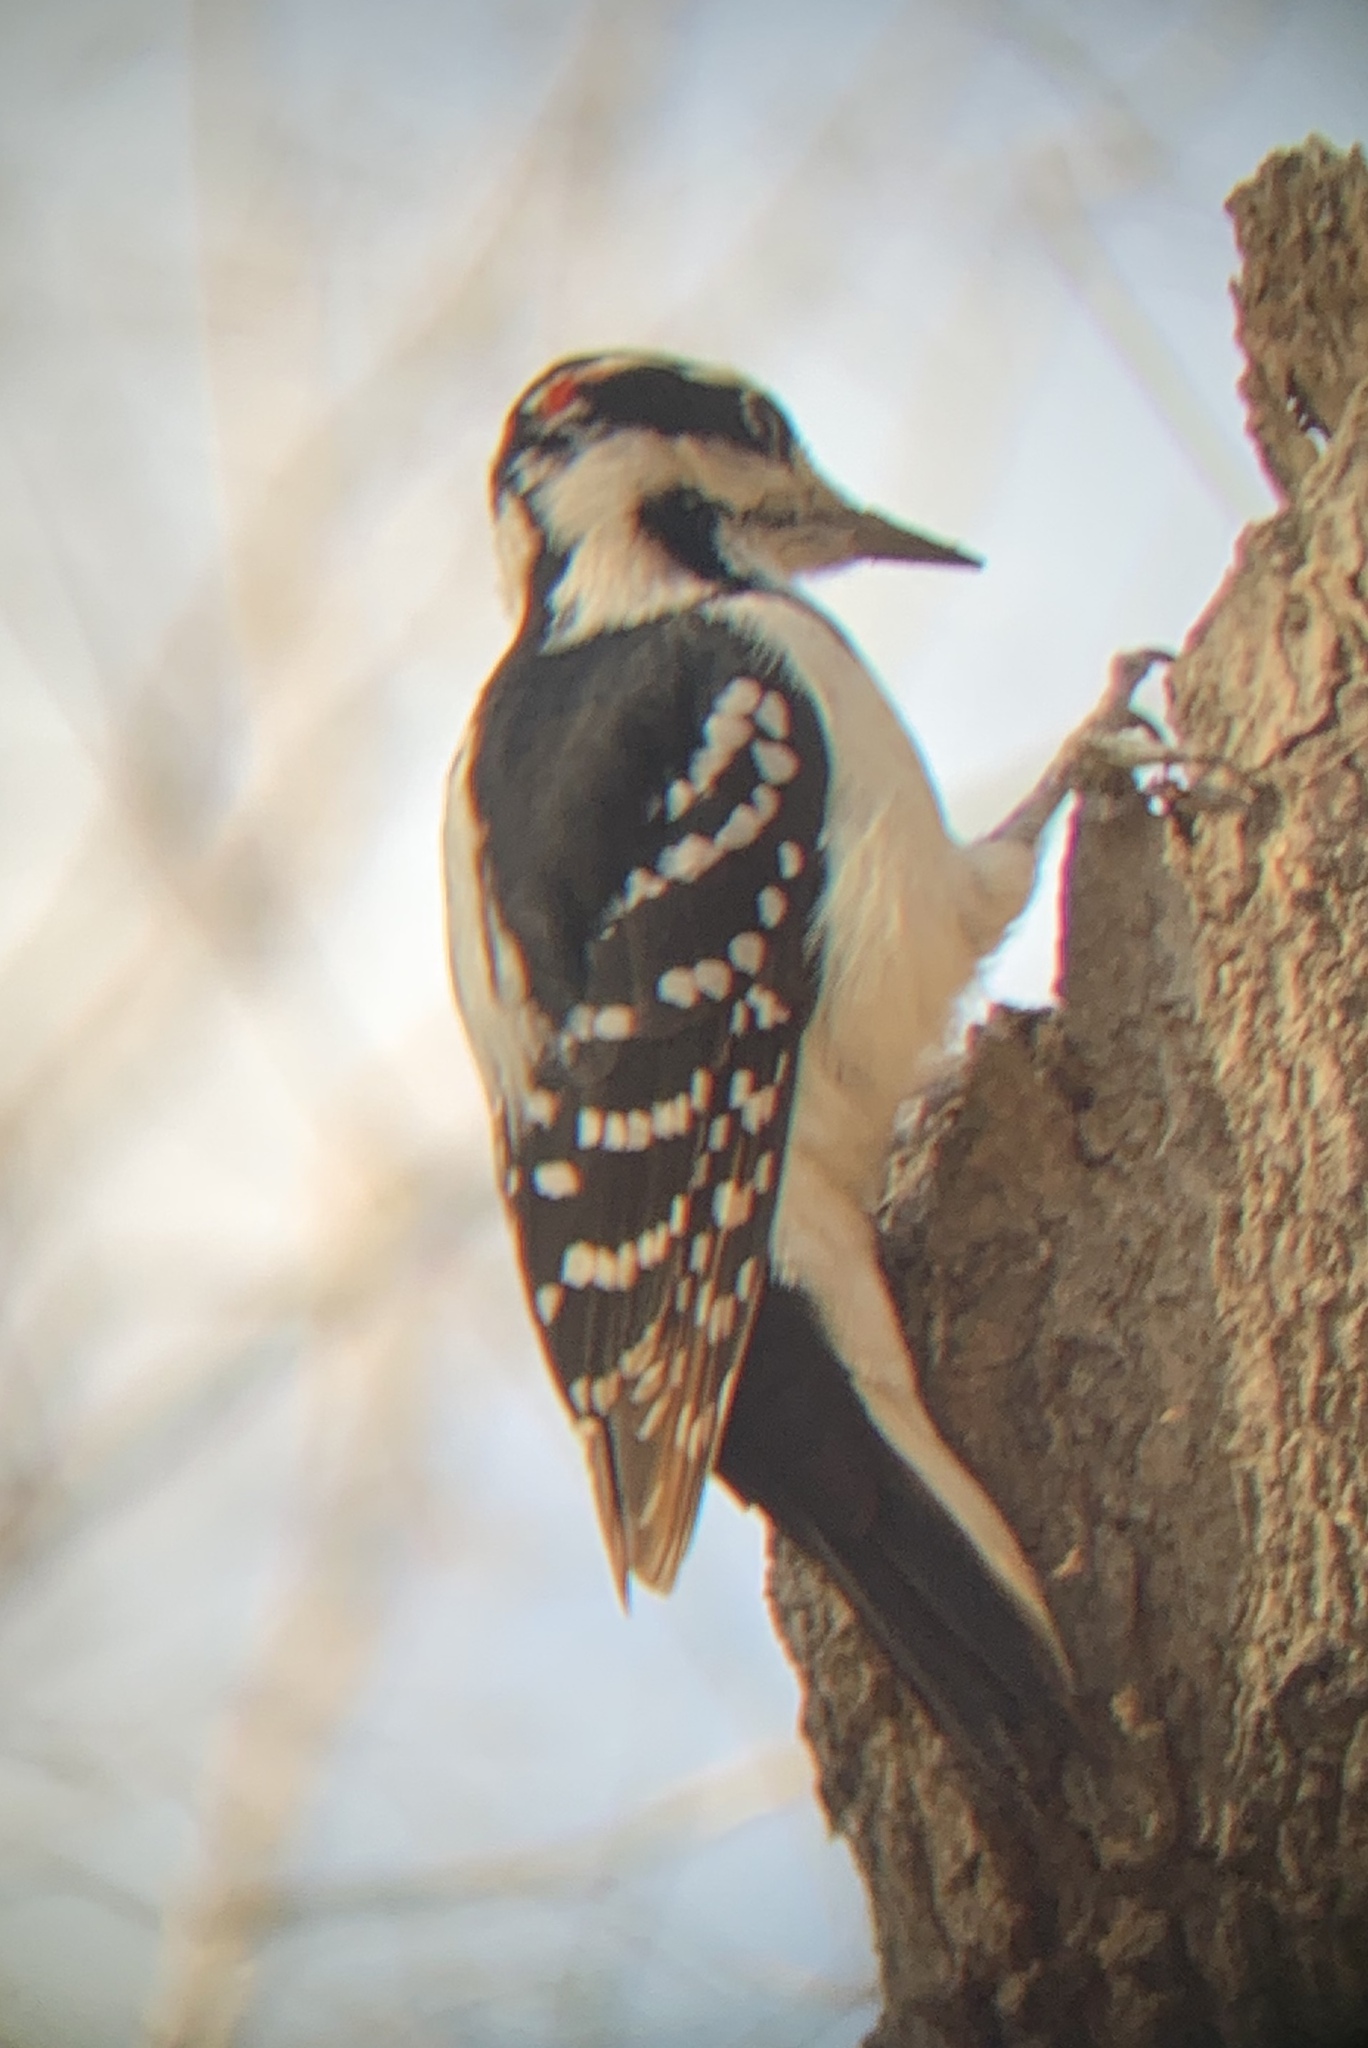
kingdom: Animalia
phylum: Chordata
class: Aves
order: Piciformes
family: Picidae
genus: Leuconotopicus
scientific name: Leuconotopicus villosus
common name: Hairy woodpecker
